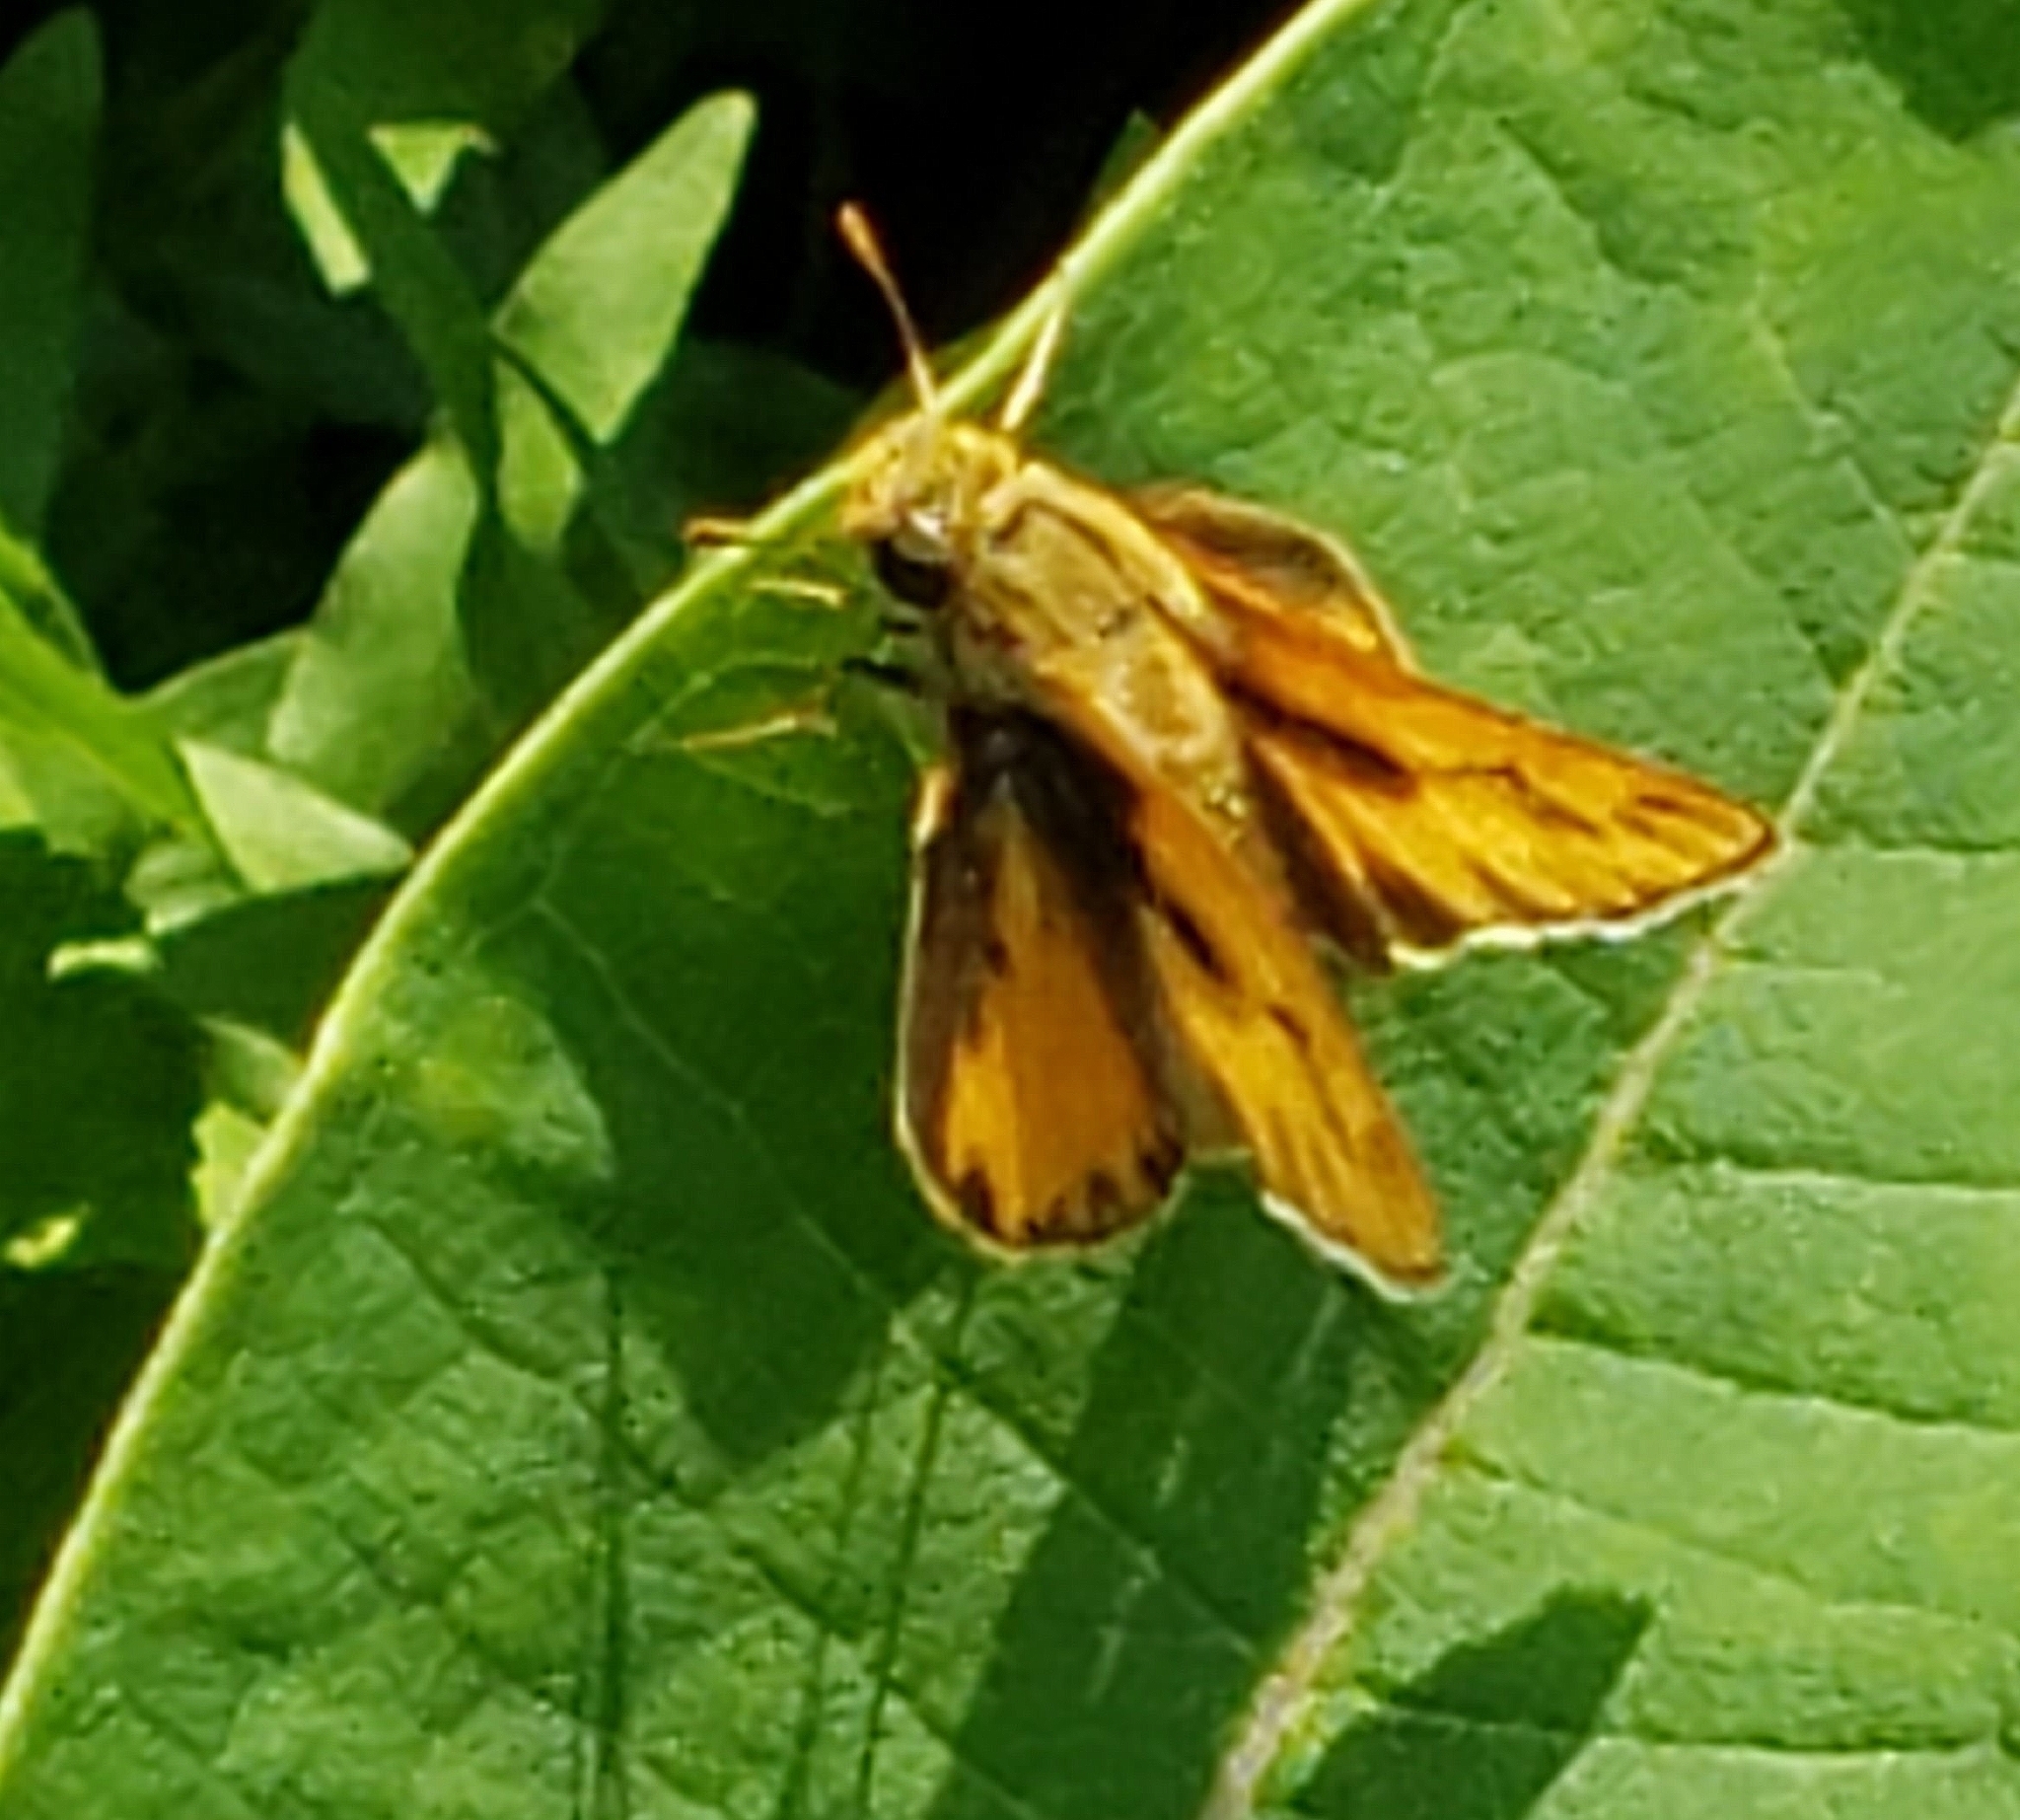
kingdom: Animalia
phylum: Arthropoda
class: Insecta
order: Lepidoptera
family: Hesperiidae
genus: Hylephila
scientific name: Hylephila phyleus
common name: Fiery skipper
